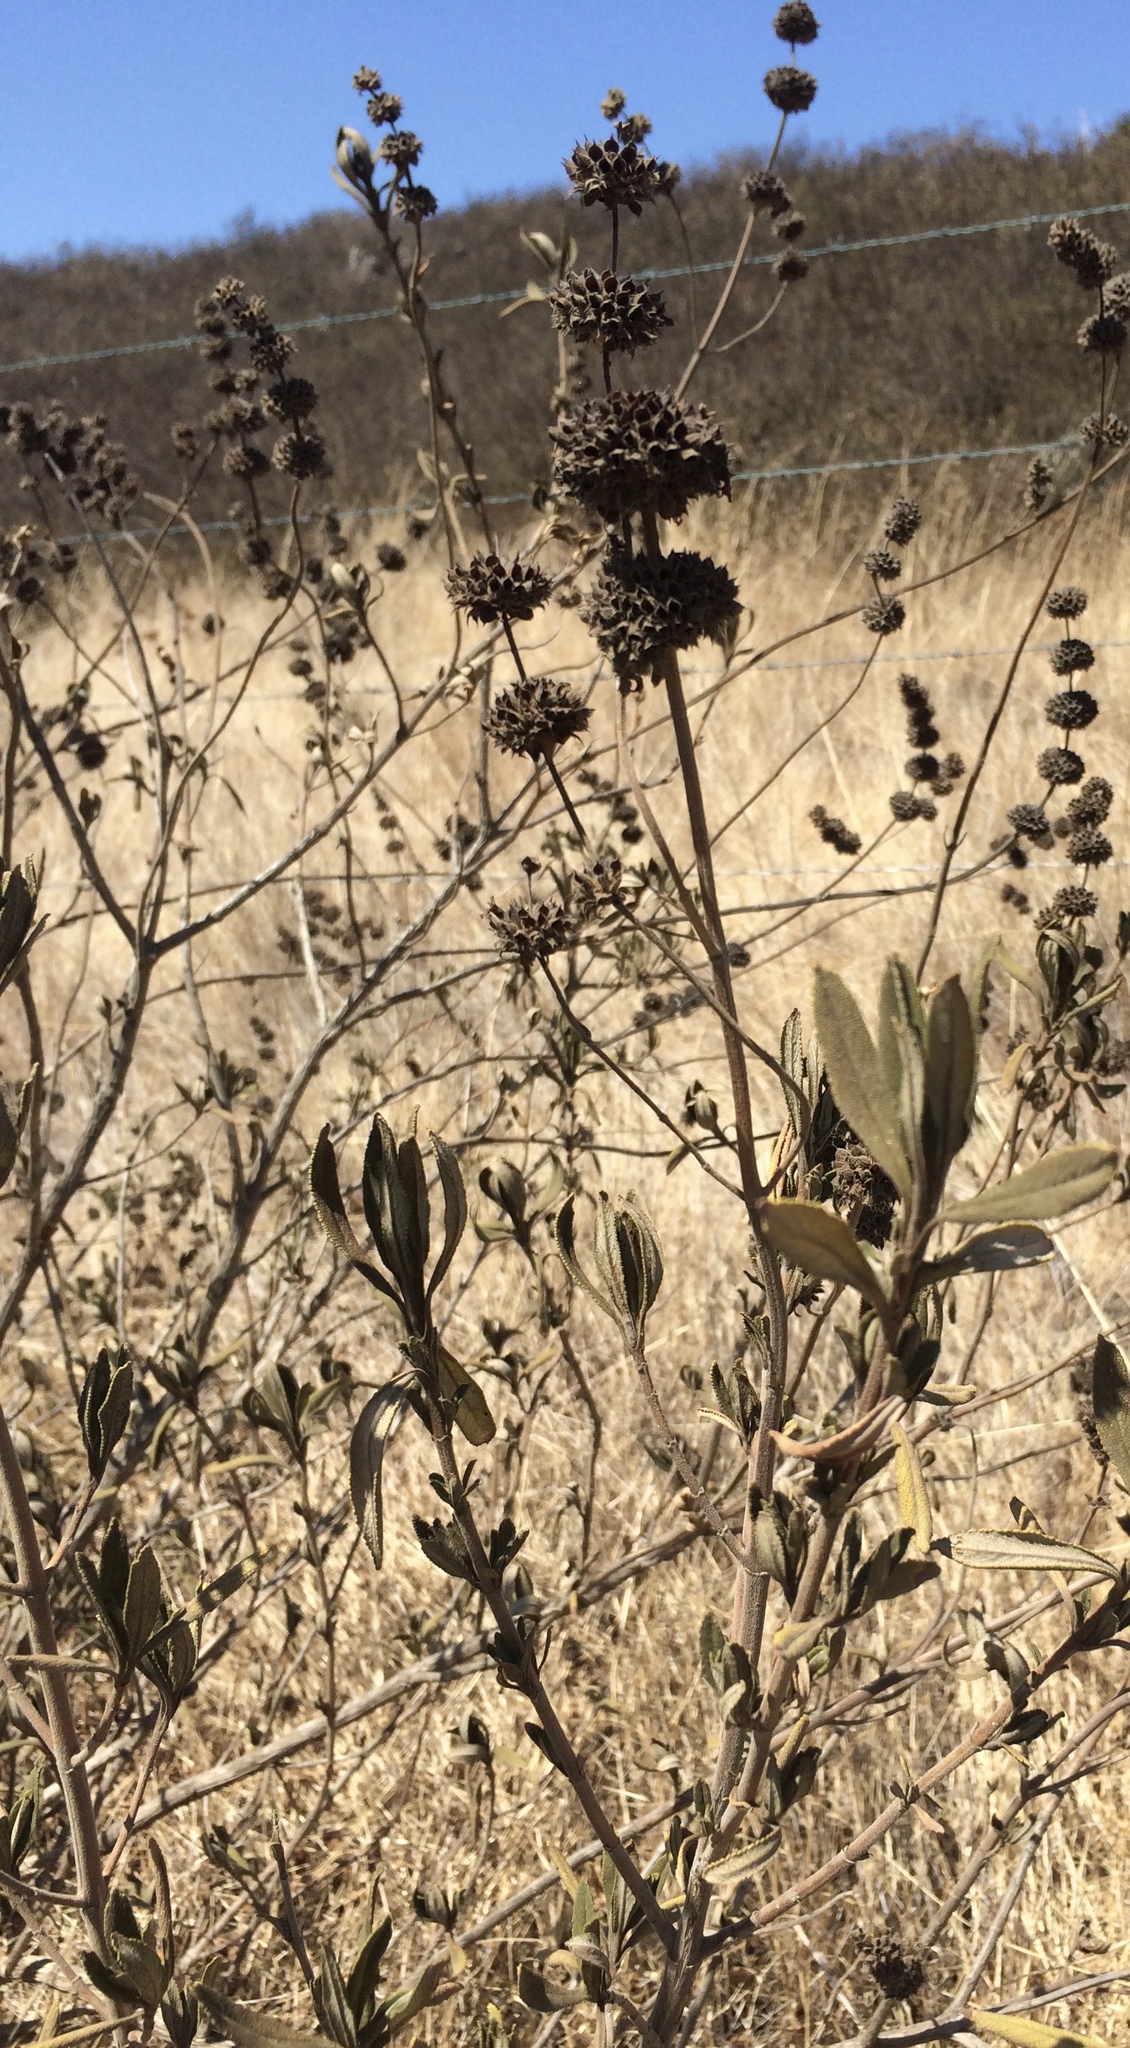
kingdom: Plantae
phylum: Tracheophyta
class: Magnoliopsida
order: Lamiales
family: Lamiaceae
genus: Salvia
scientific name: Salvia mellifera
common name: Black sage
